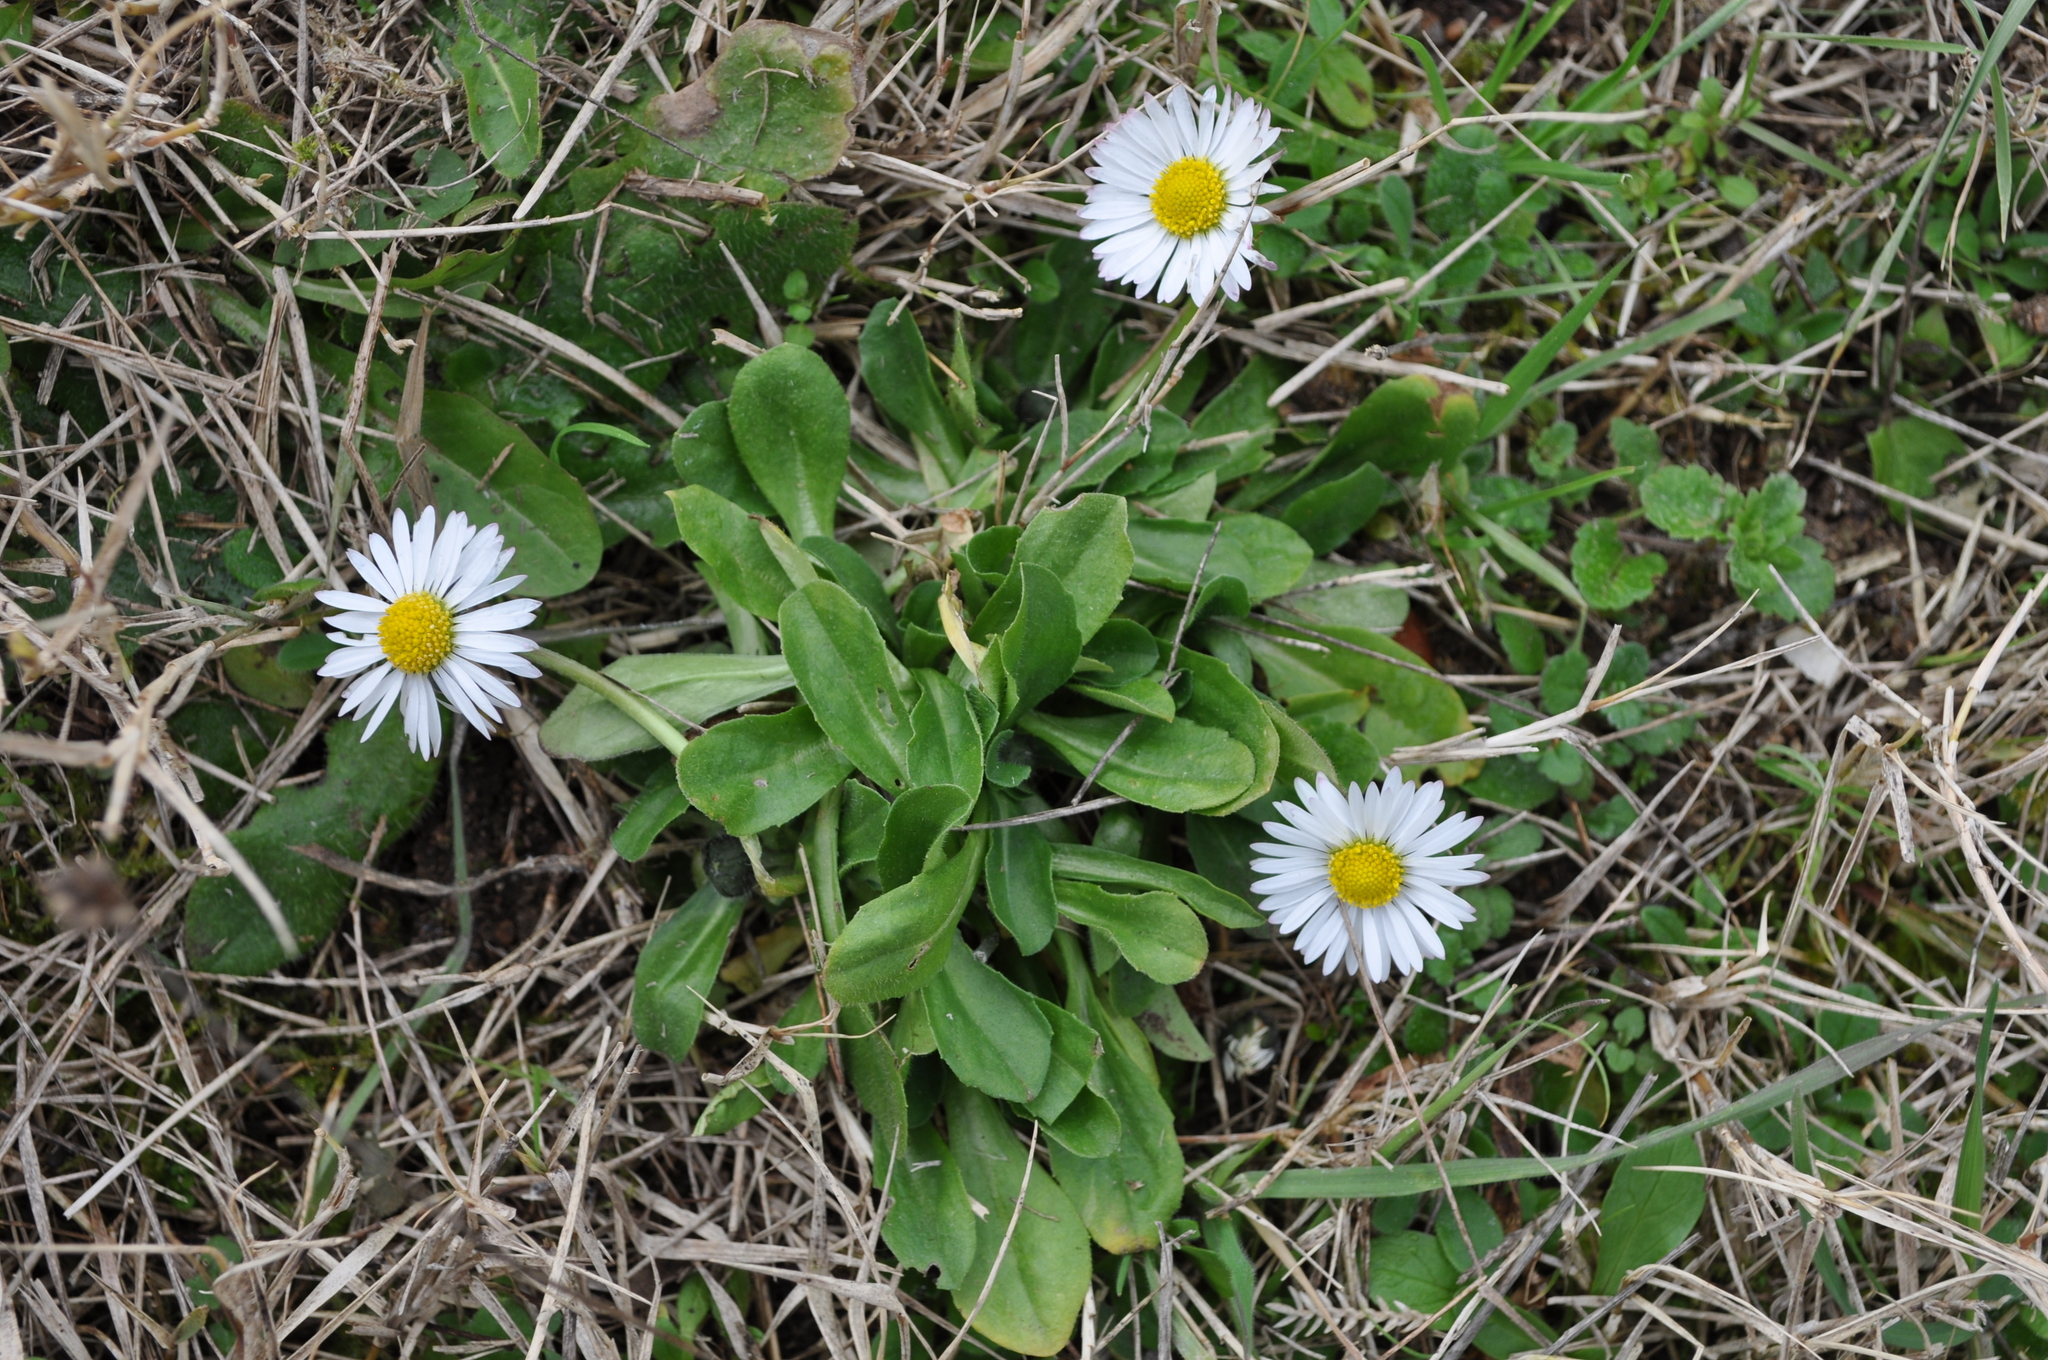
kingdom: Plantae
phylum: Tracheophyta
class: Magnoliopsida
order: Asterales
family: Asteraceae
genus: Bellis
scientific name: Bellis perennis
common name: Lawndaisy
